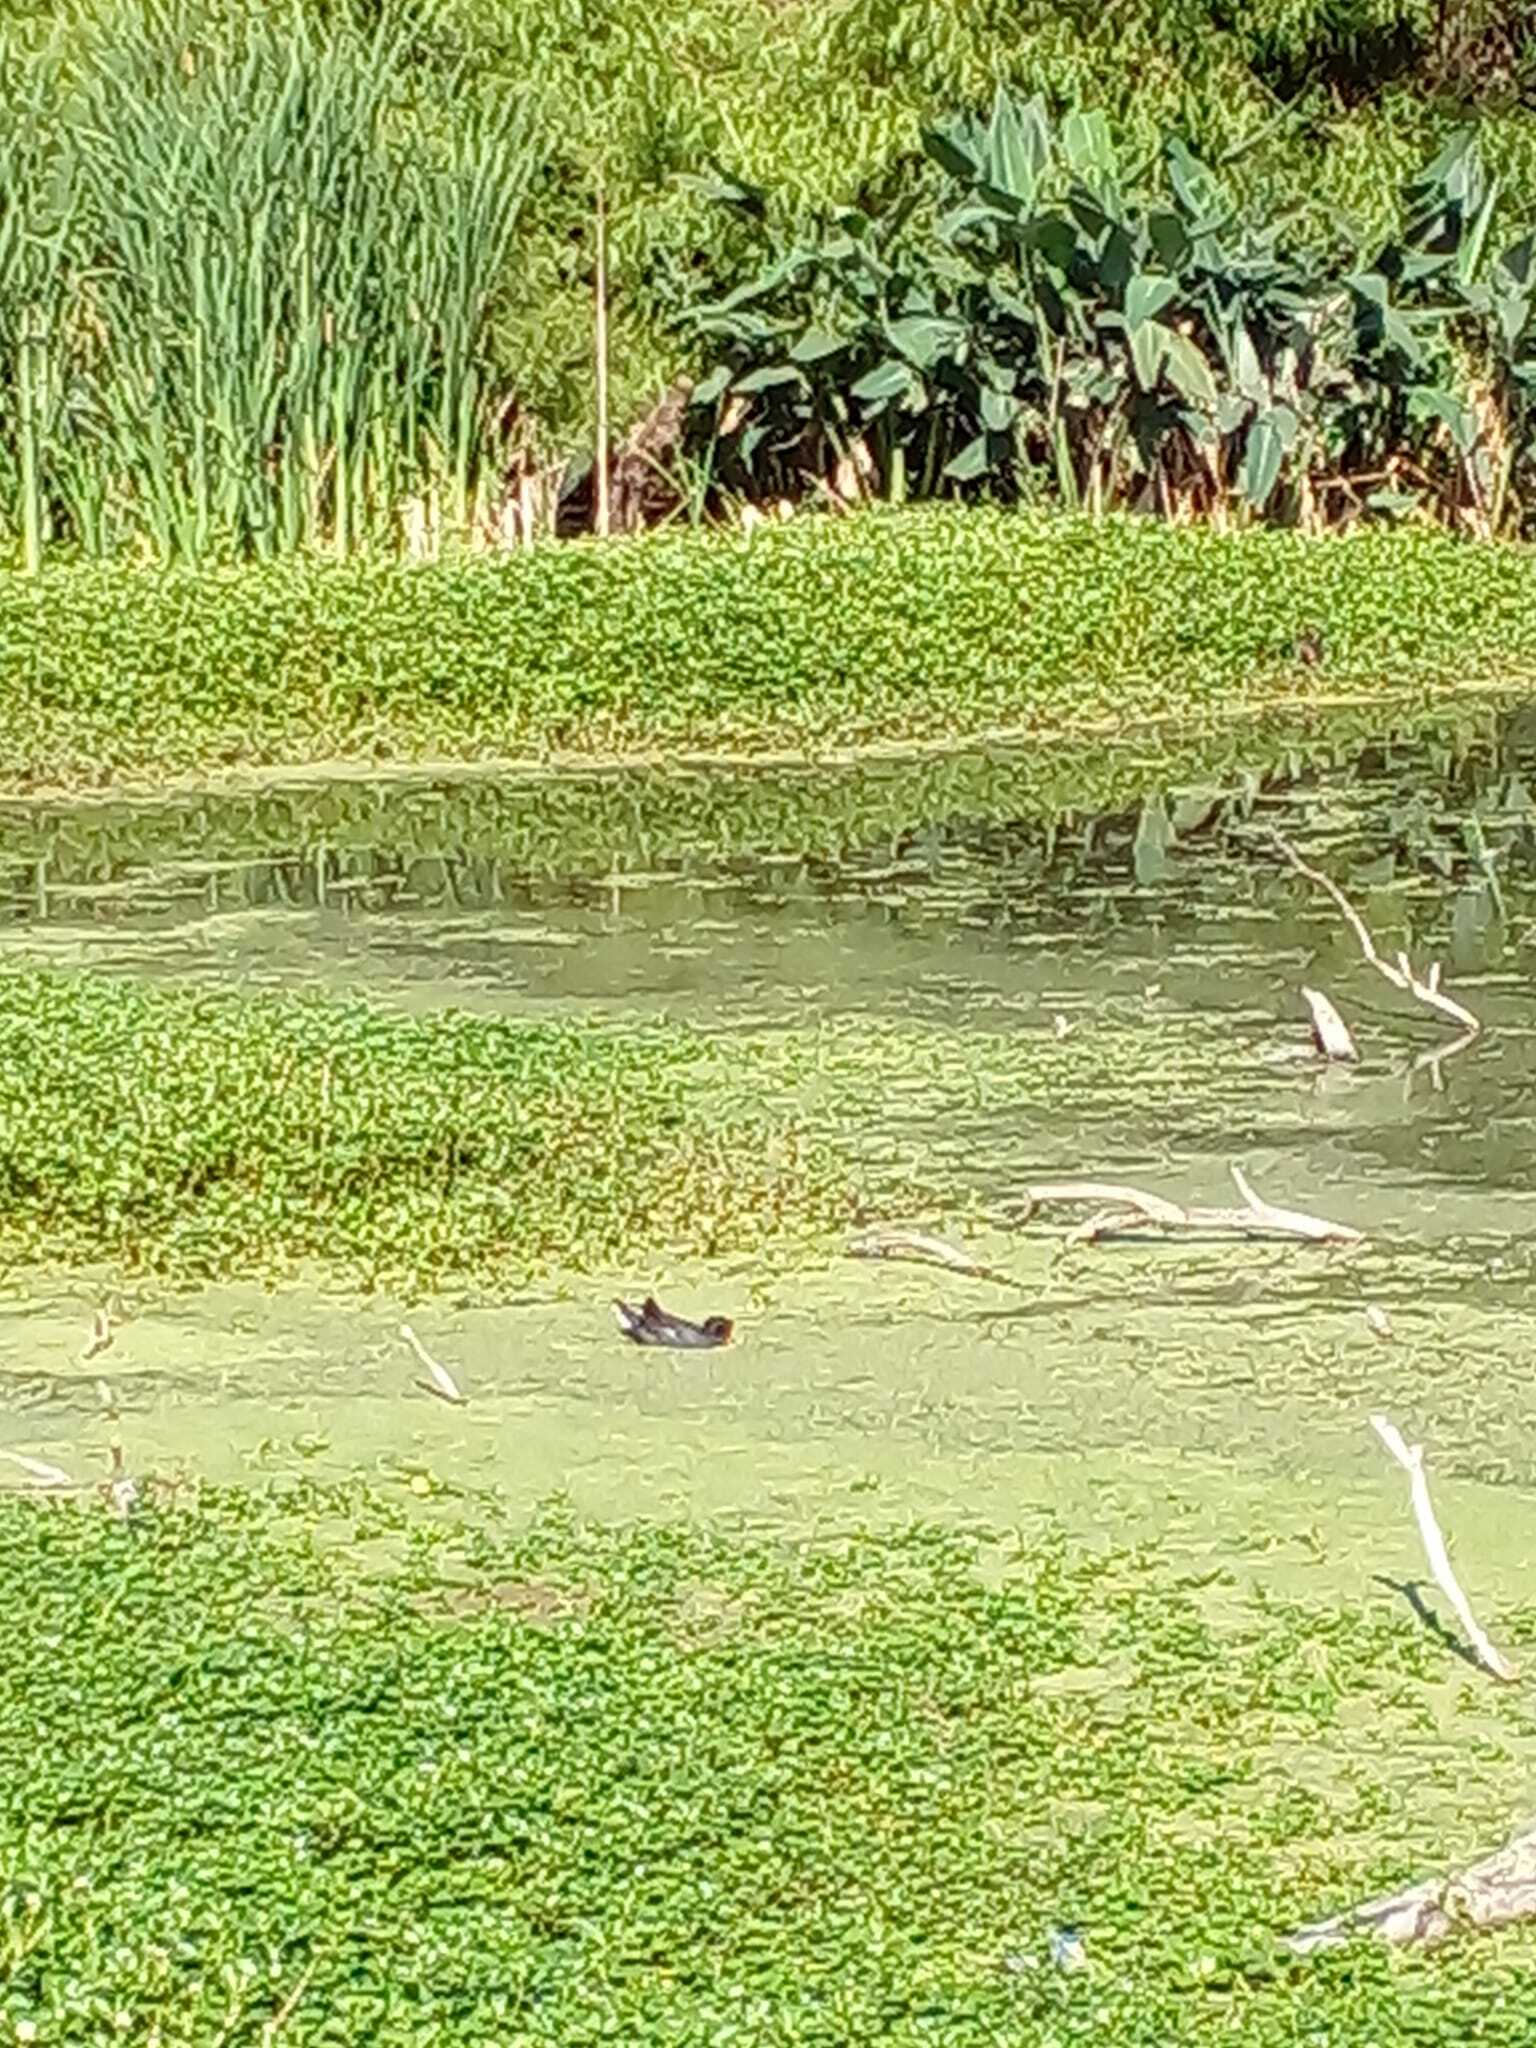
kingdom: Animalia
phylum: Chordata
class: Aves
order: Gruiformes
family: Rallidae
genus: Gallinula
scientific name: Gallinula chloropus
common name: Common moorhen
